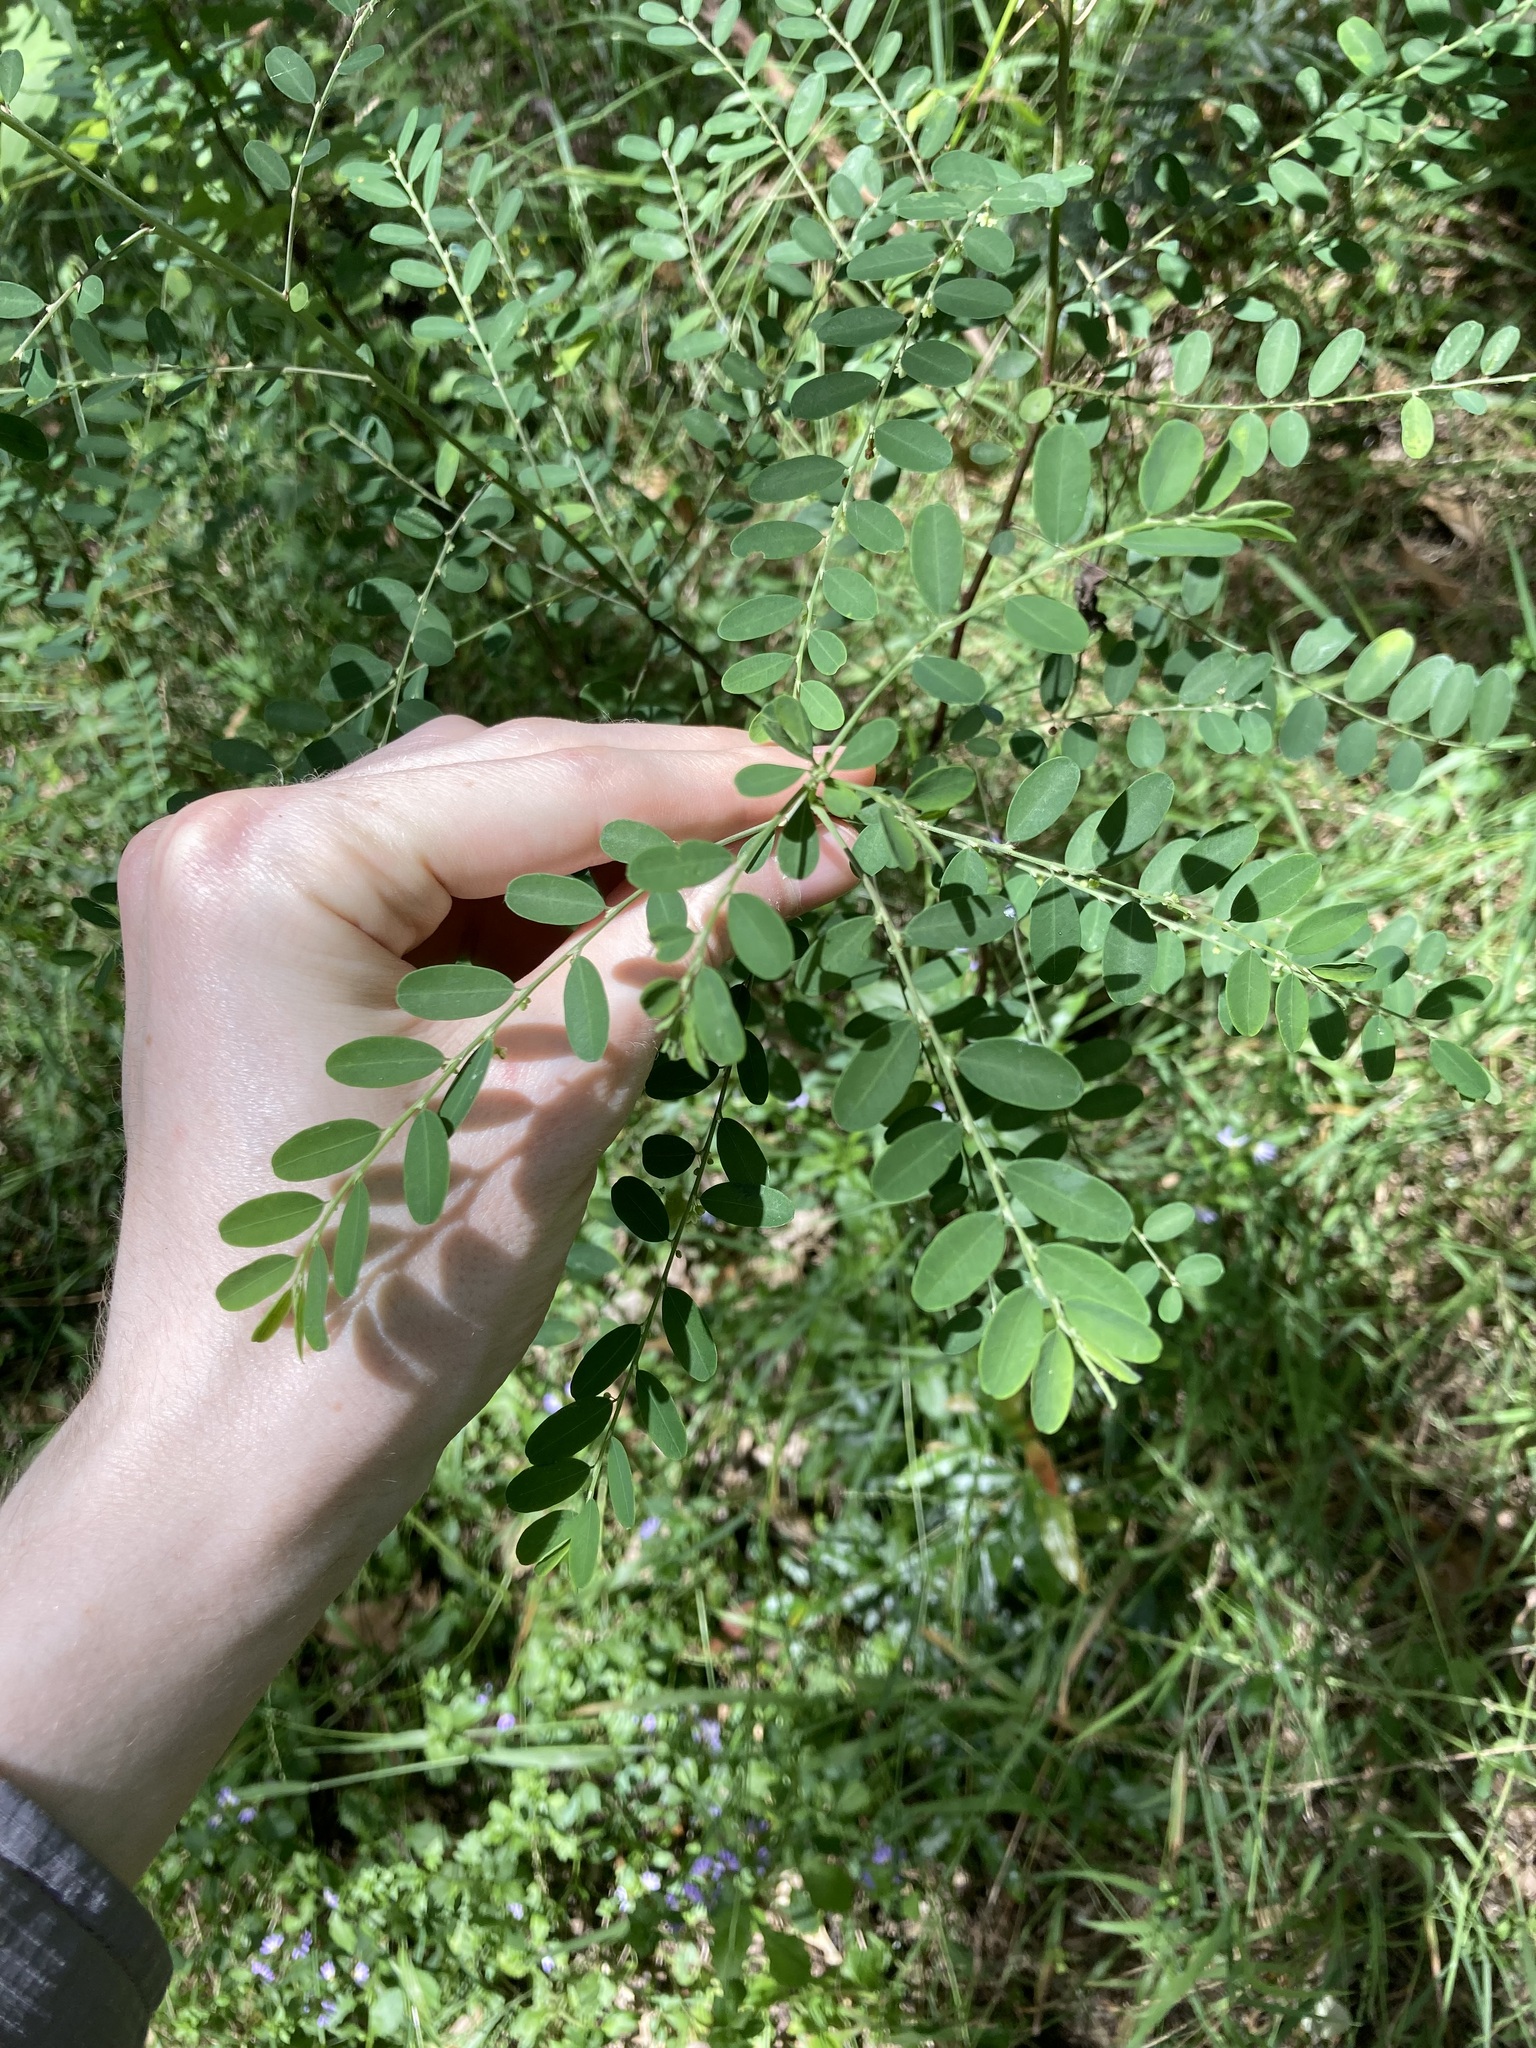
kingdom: Plantae
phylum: Tracheophyta
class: Magnoliopsida
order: Malpighiales
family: Phyllanthaceae
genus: Phyllanthus
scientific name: Phyllanthus gunnii
